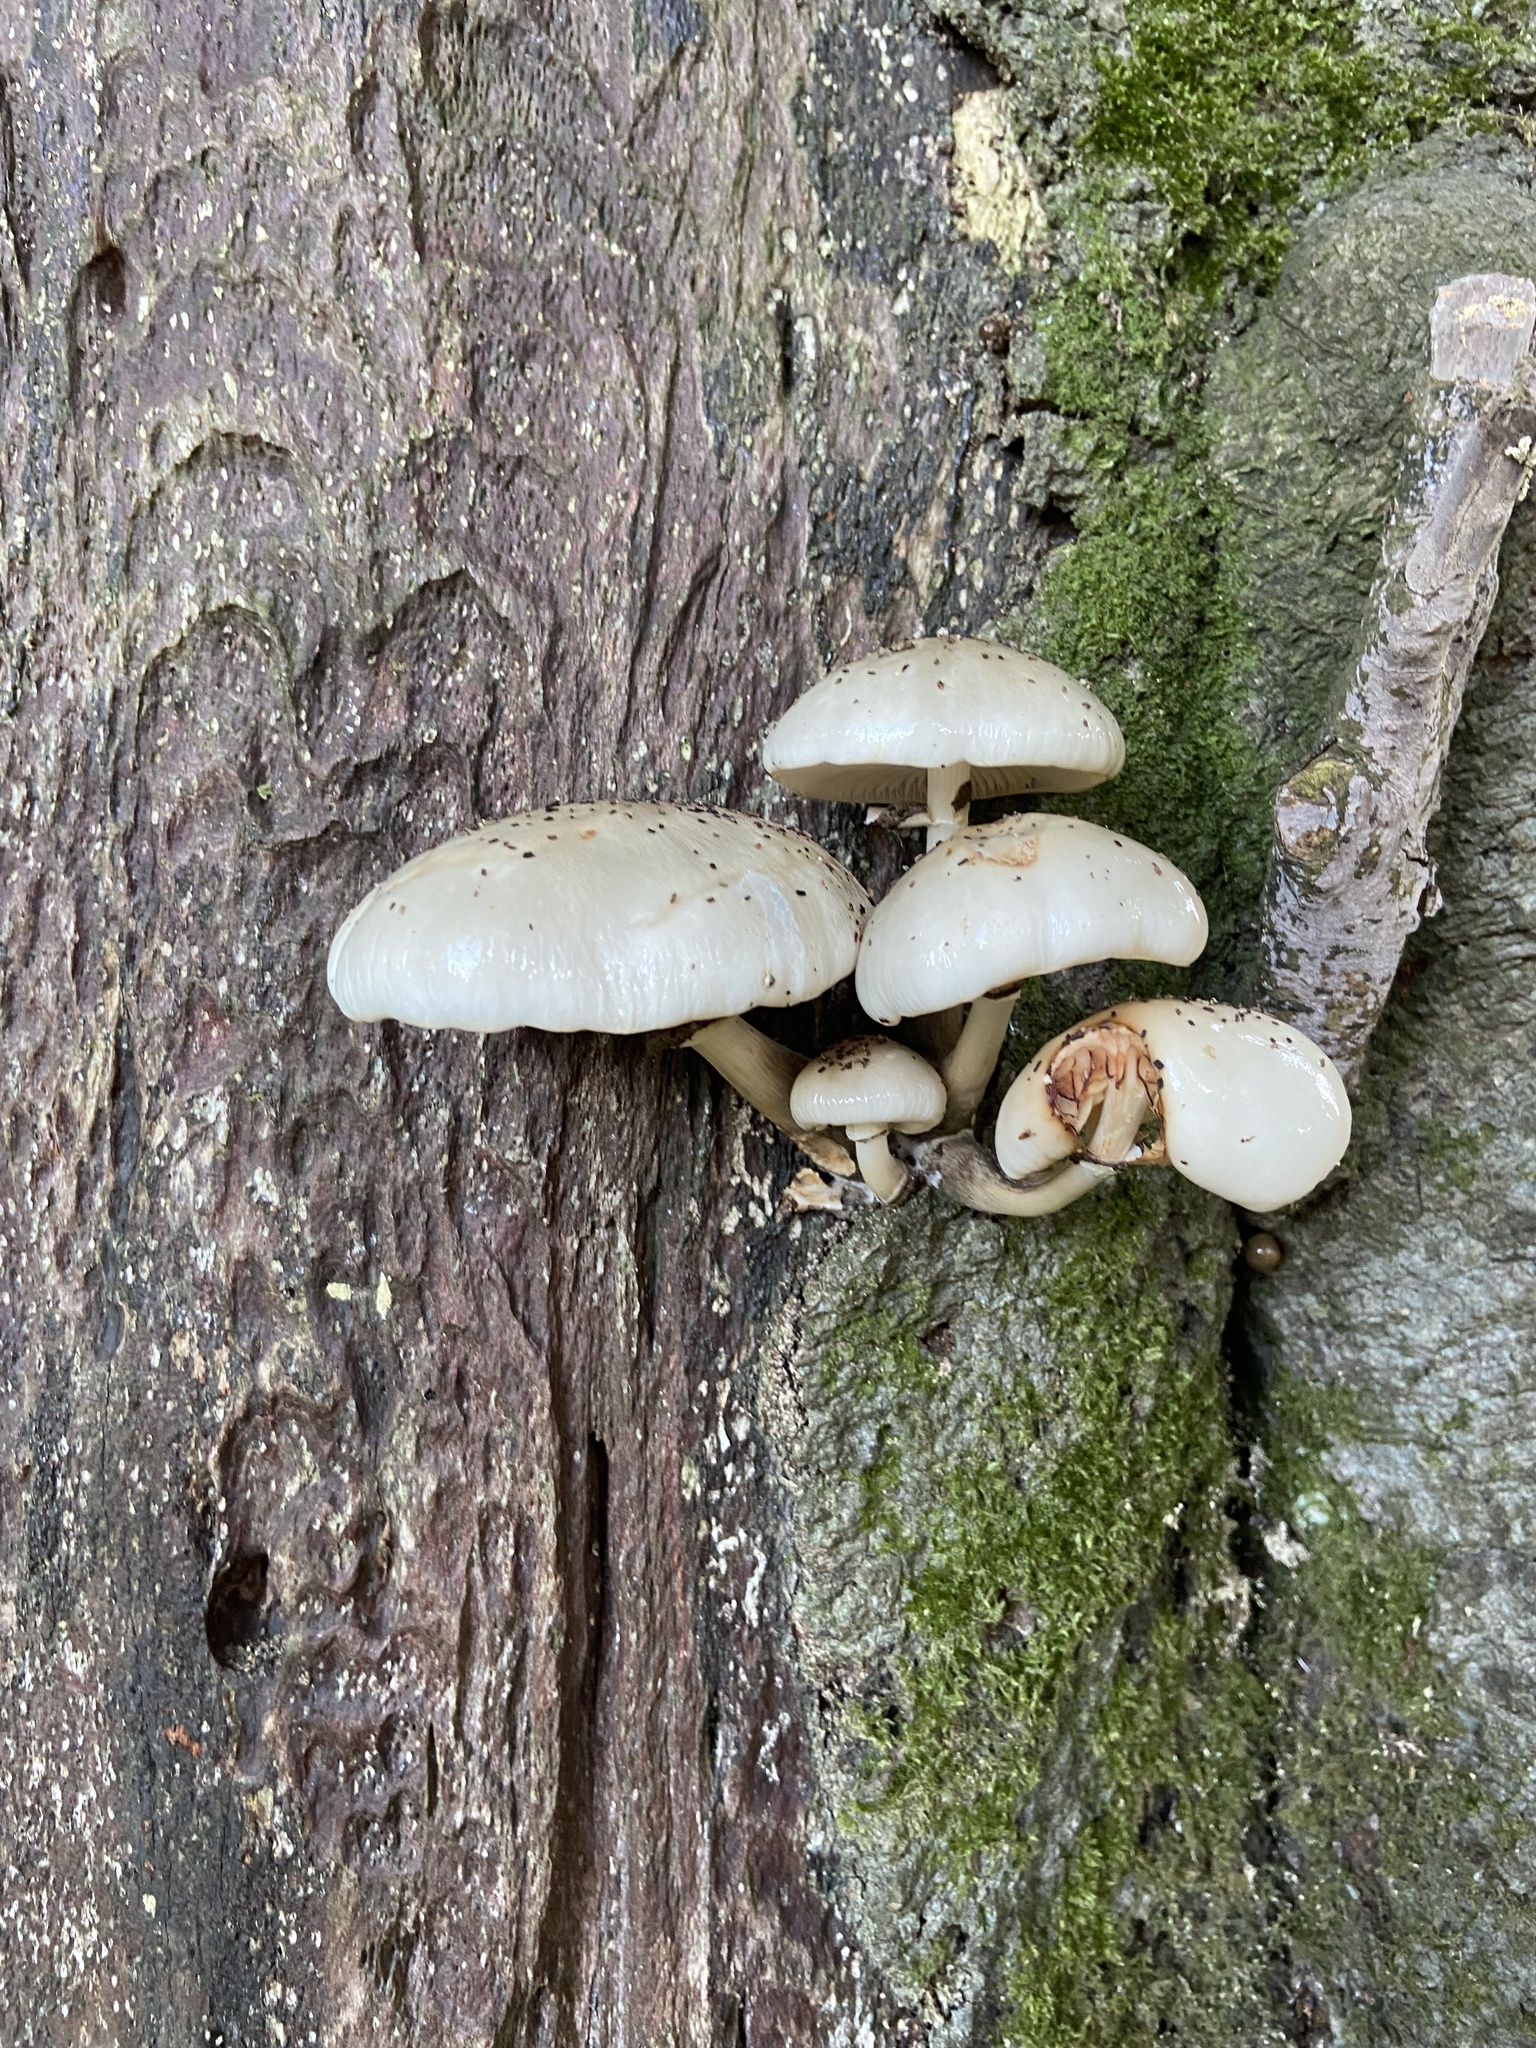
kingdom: Fungi
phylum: Basidiomycota
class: Agaricomycetes
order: Agaricales
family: Physalacriaceae
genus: Mucidula
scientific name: Mucidula mucida
